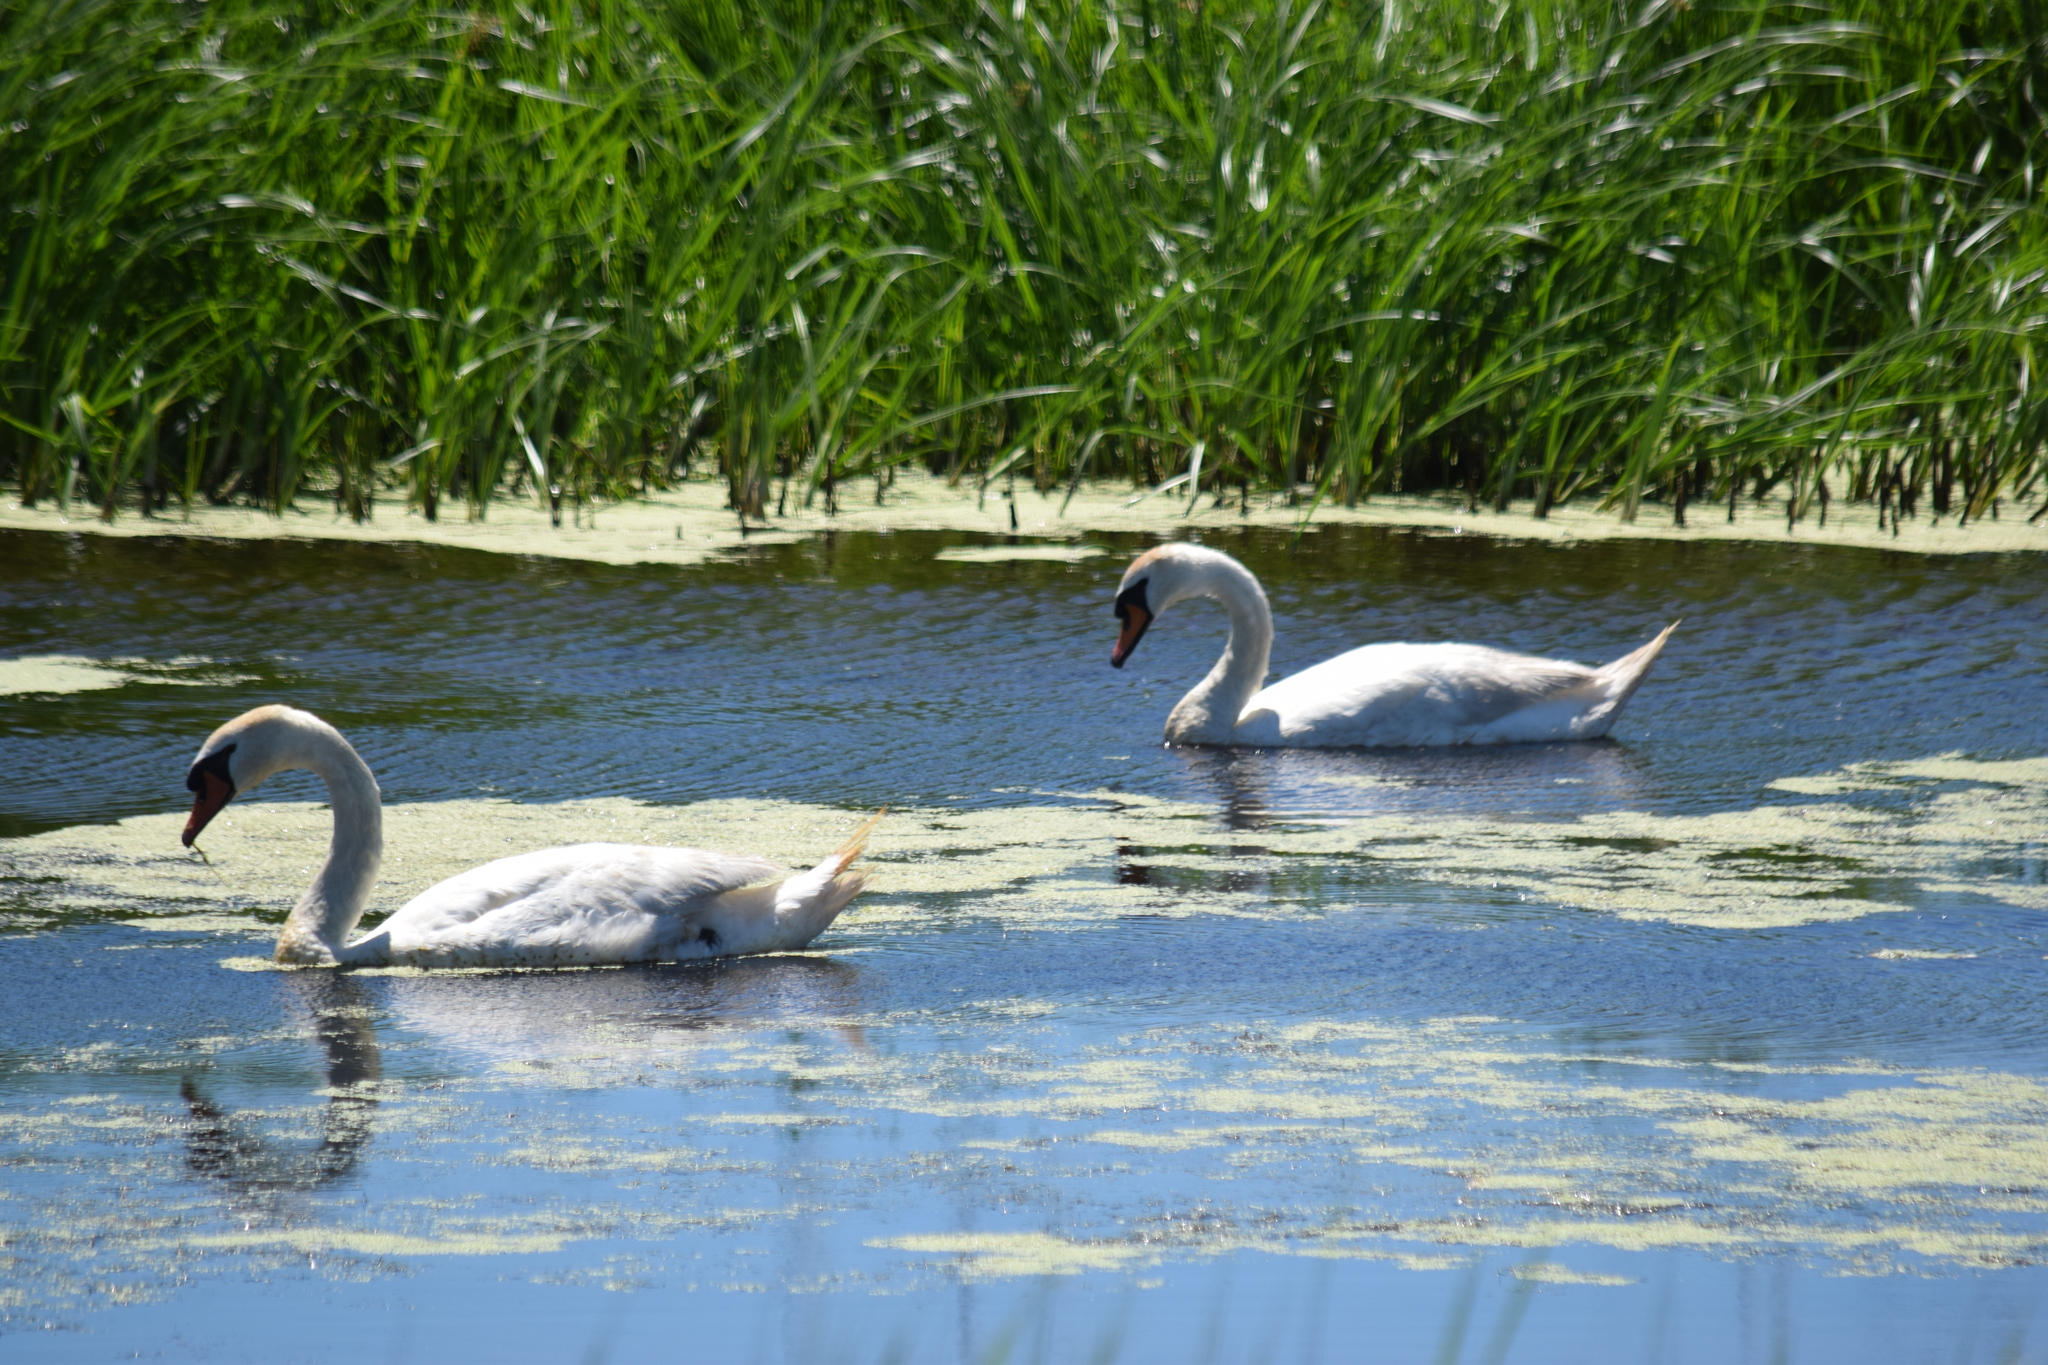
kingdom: Animalia
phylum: Chordata
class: Aves
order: Anseriformes
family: Anatidae
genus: Cygnus
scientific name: Cygnus olor
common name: Mute swan
